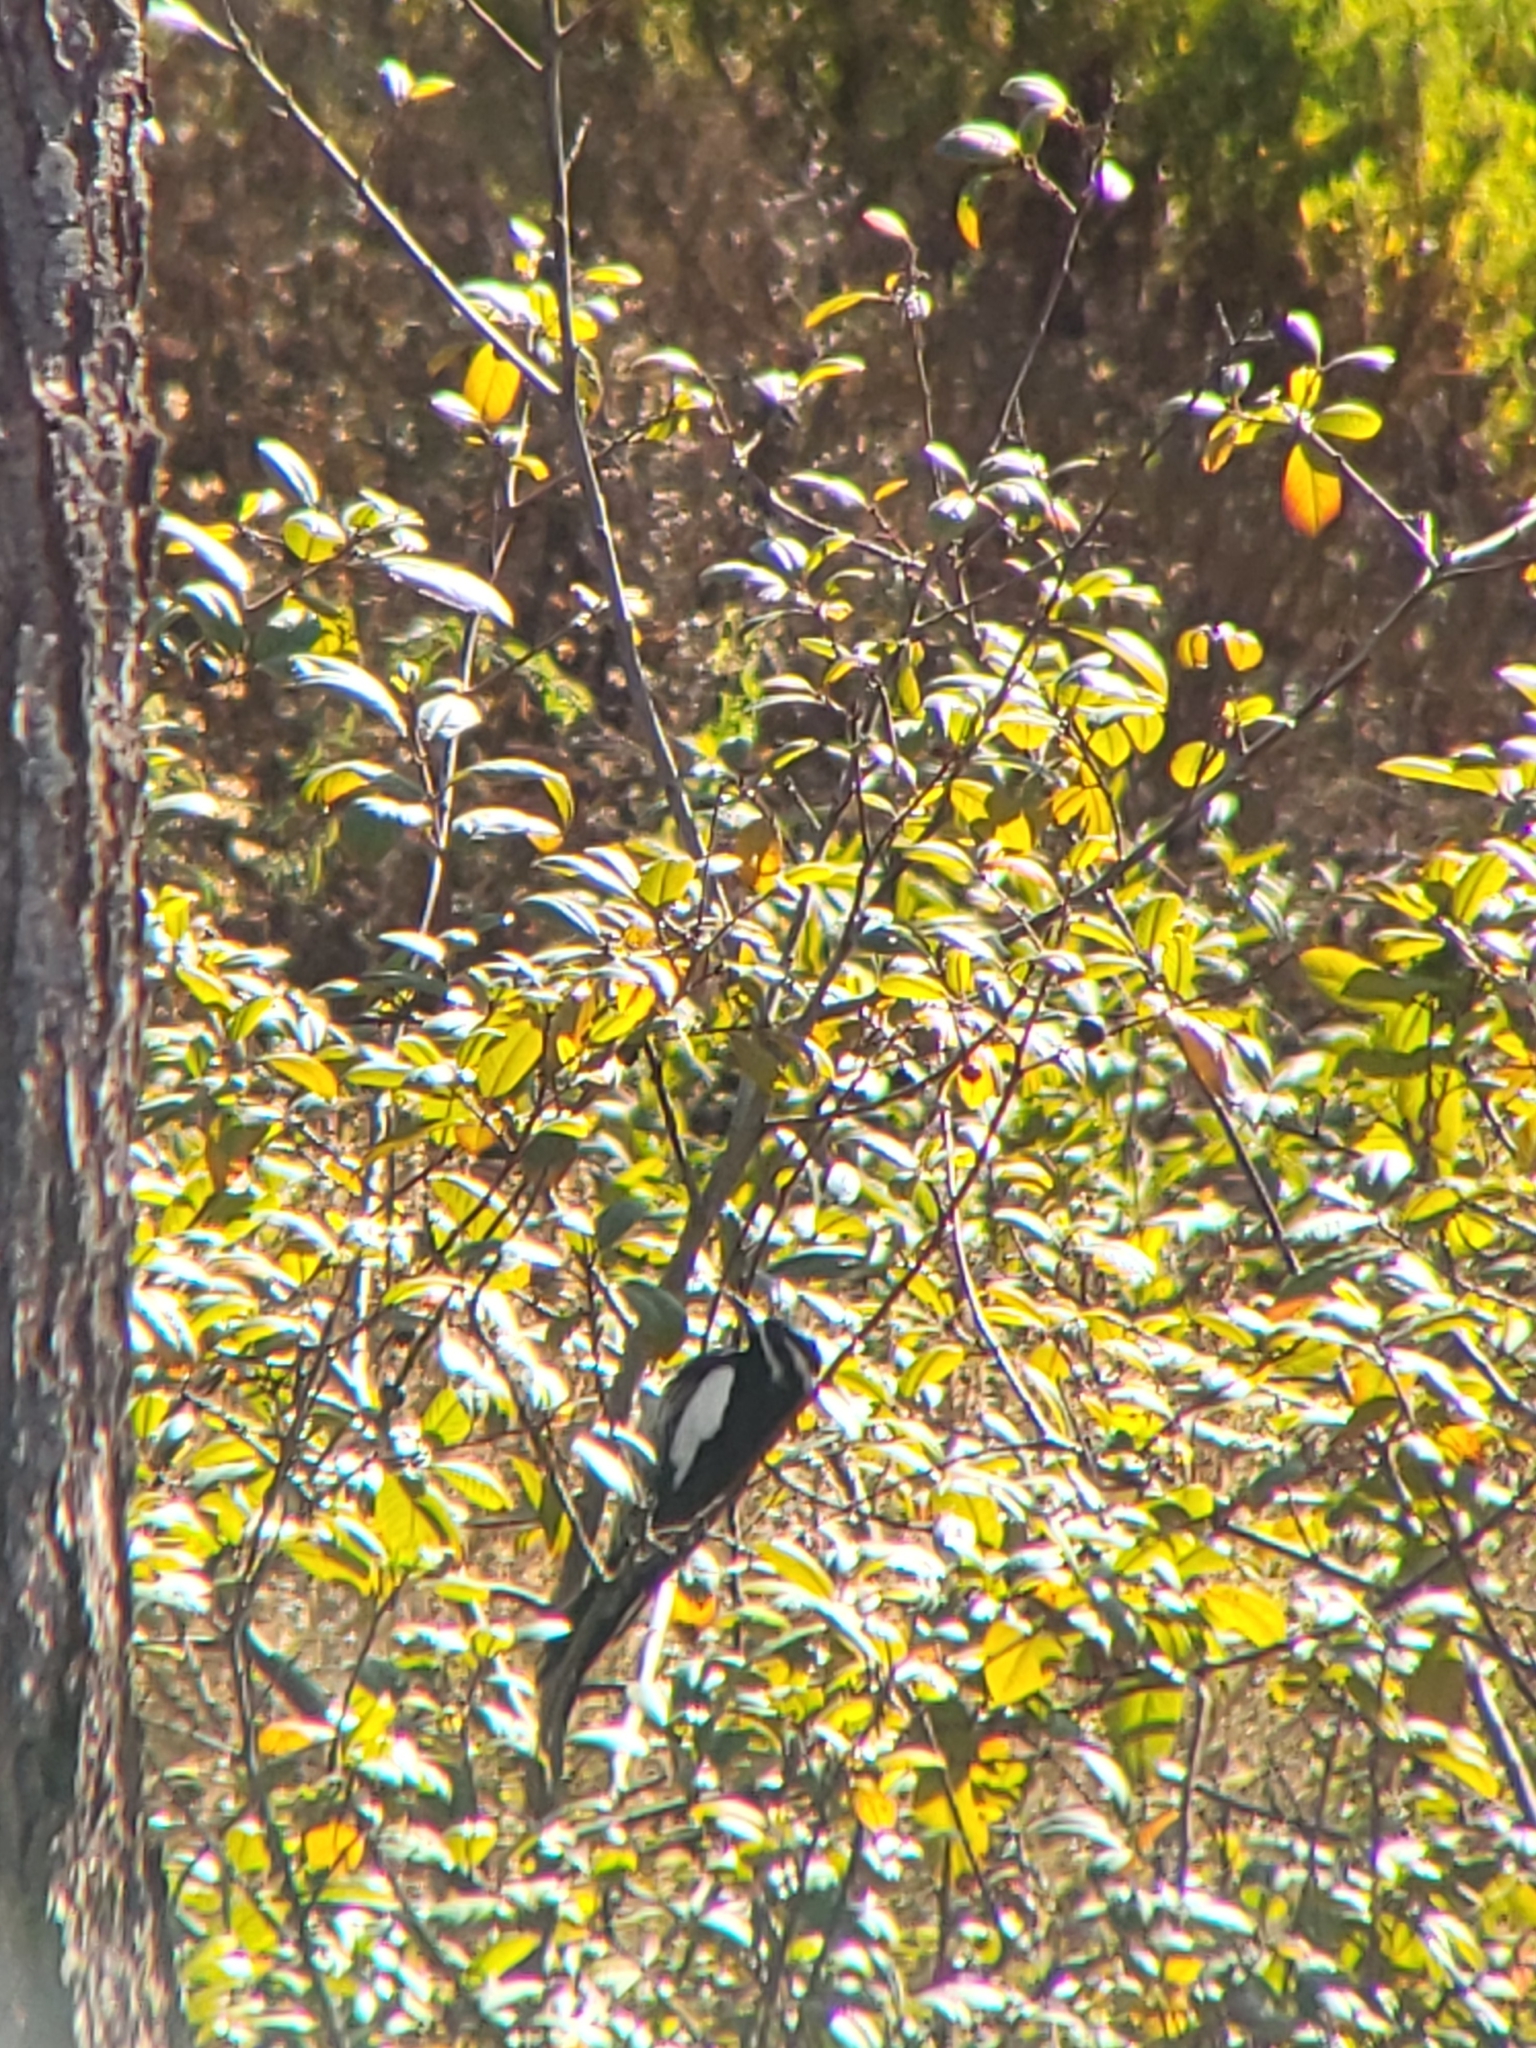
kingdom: Animalia
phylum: Chordata
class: Aves
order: Piciformes
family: Picidae
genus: Sphyrapicus
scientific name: Sphyrapicus thyroideus
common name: Williamson's sapsucker
